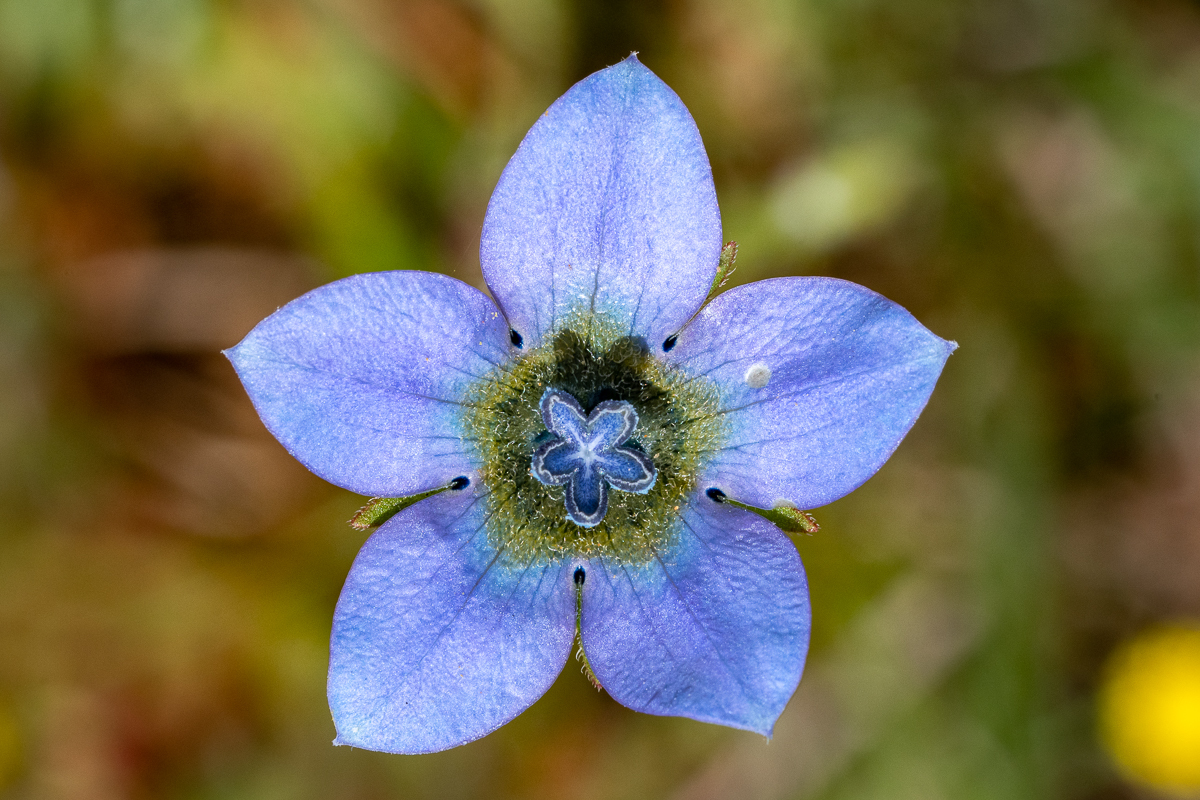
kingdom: Plantae
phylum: Tracheophyta
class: Magnoliopsida
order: Asterales
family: Campanulaceae
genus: Wahlenbergia
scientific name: Wahlenbergia capensis
